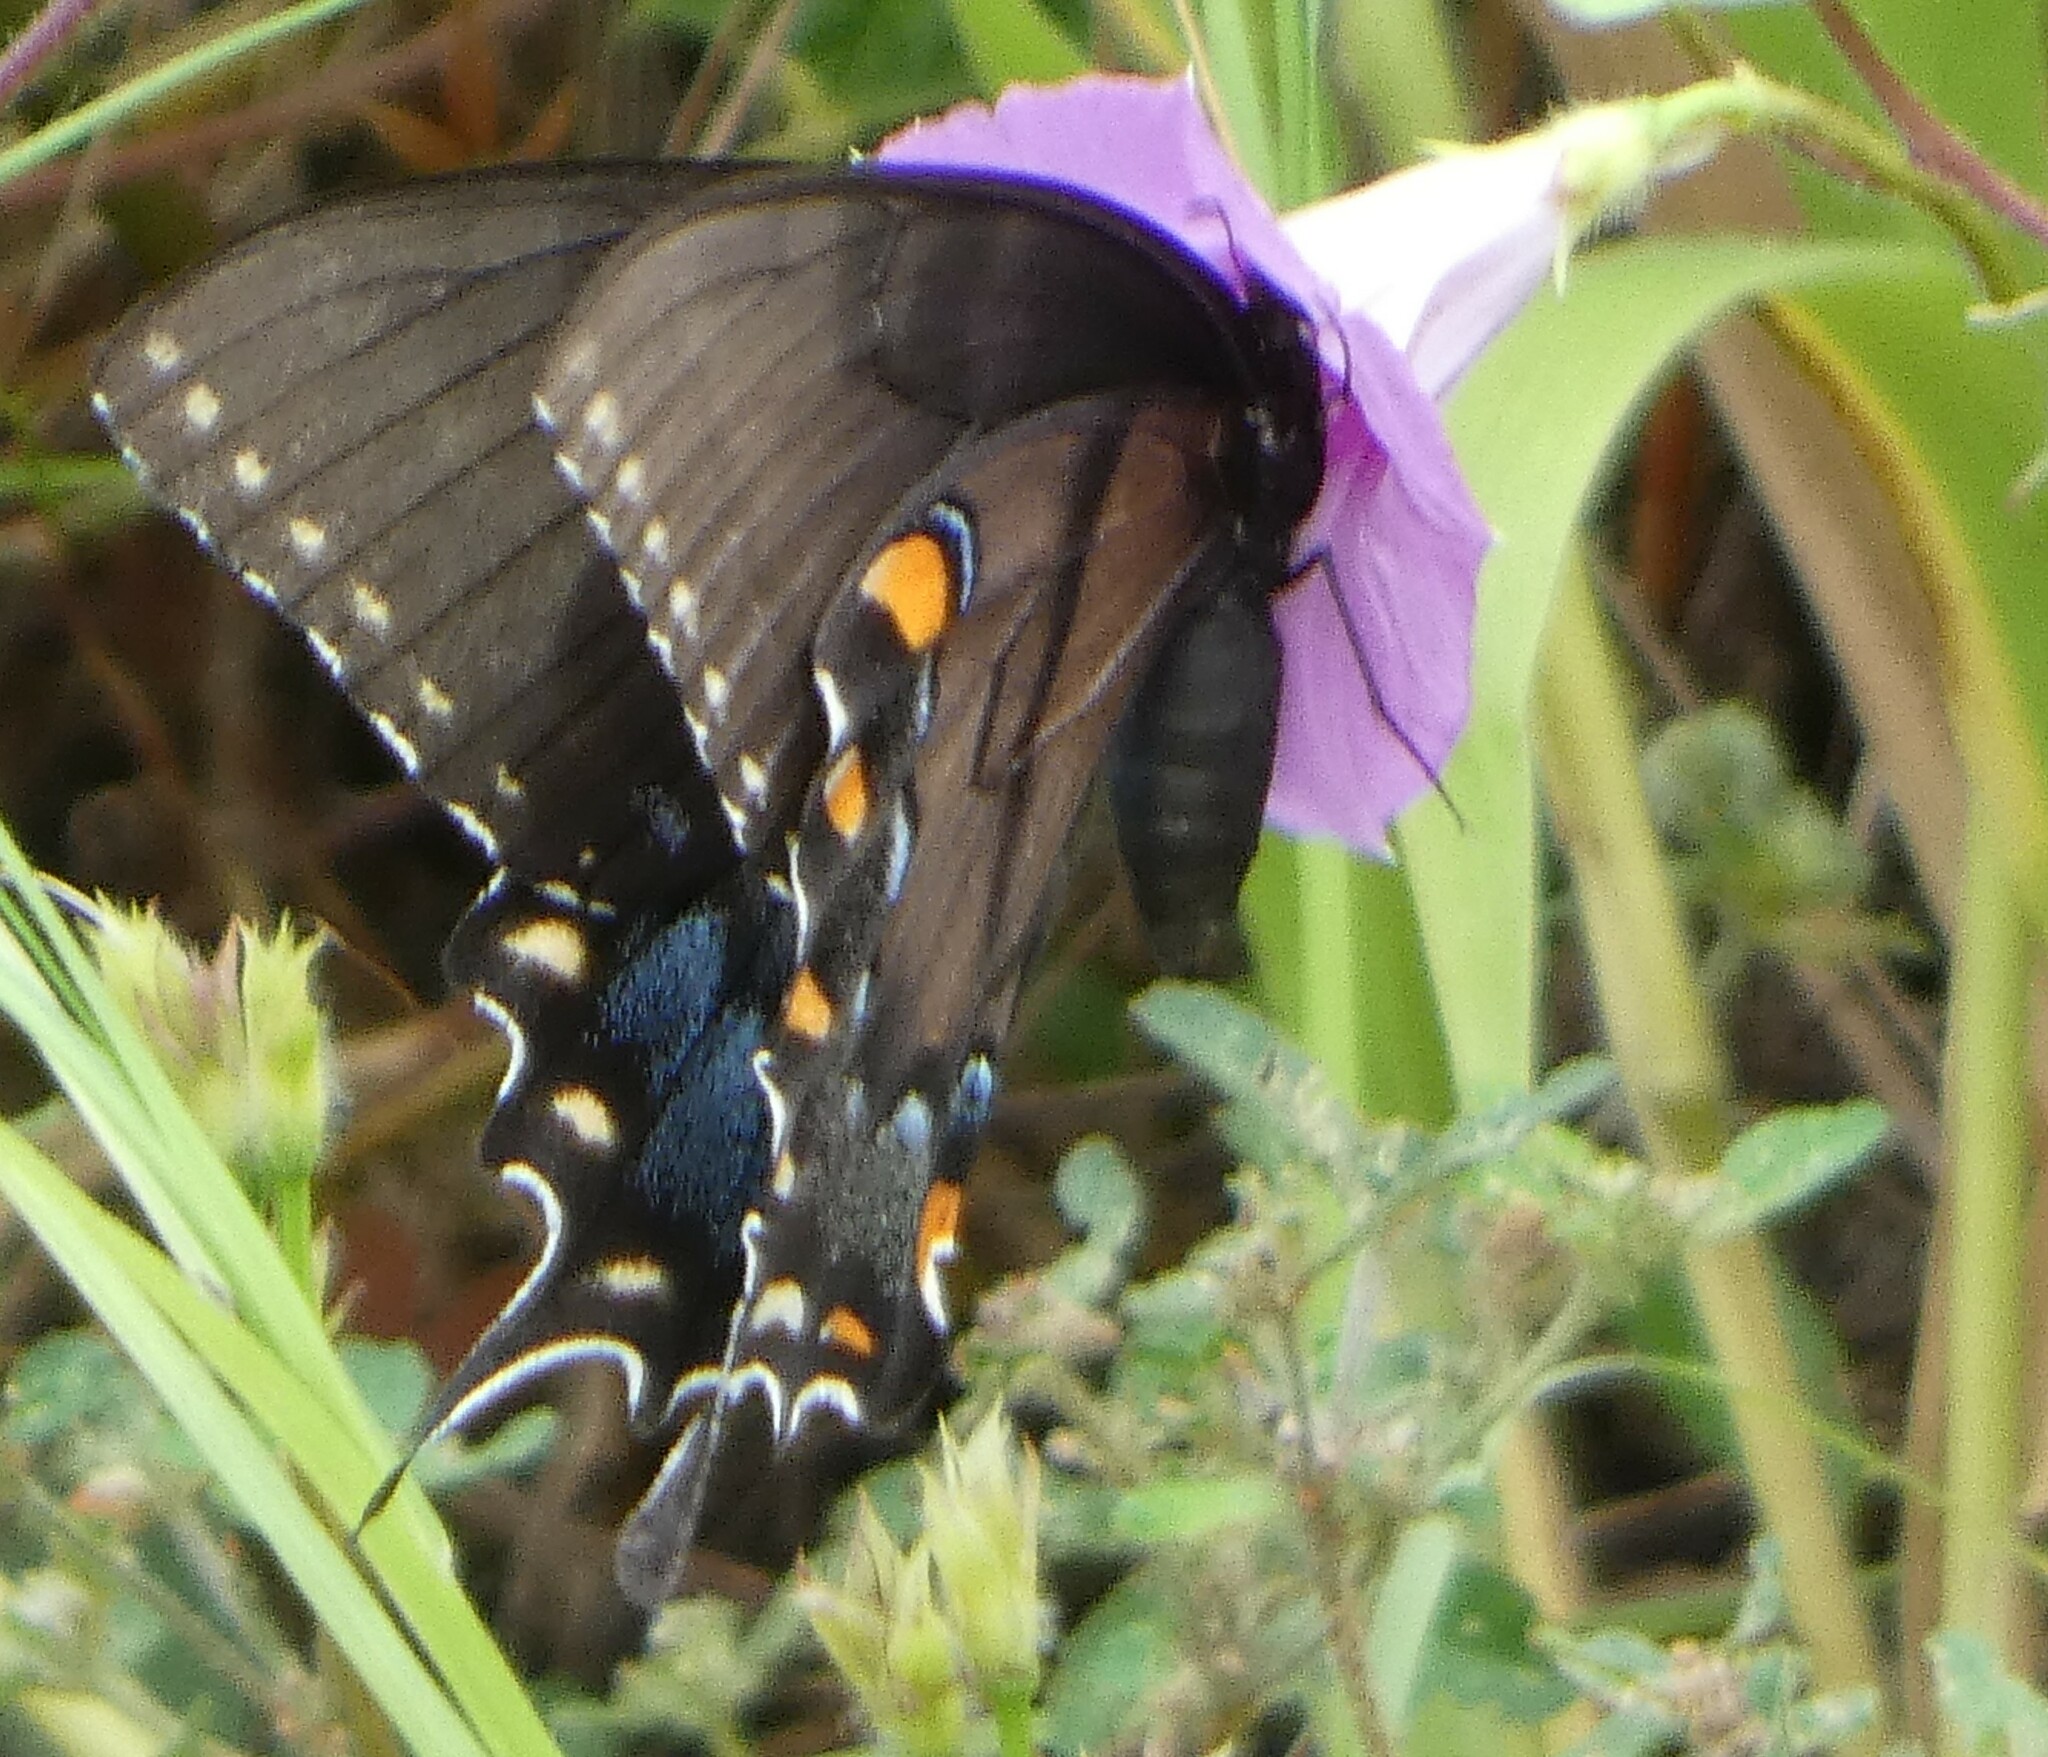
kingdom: Animalia
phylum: Arthropoda
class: Insecta
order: Lepidoptera
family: Papilionidae
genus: Papilio
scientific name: Papilio glaucus
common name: Tiger swallowtail
